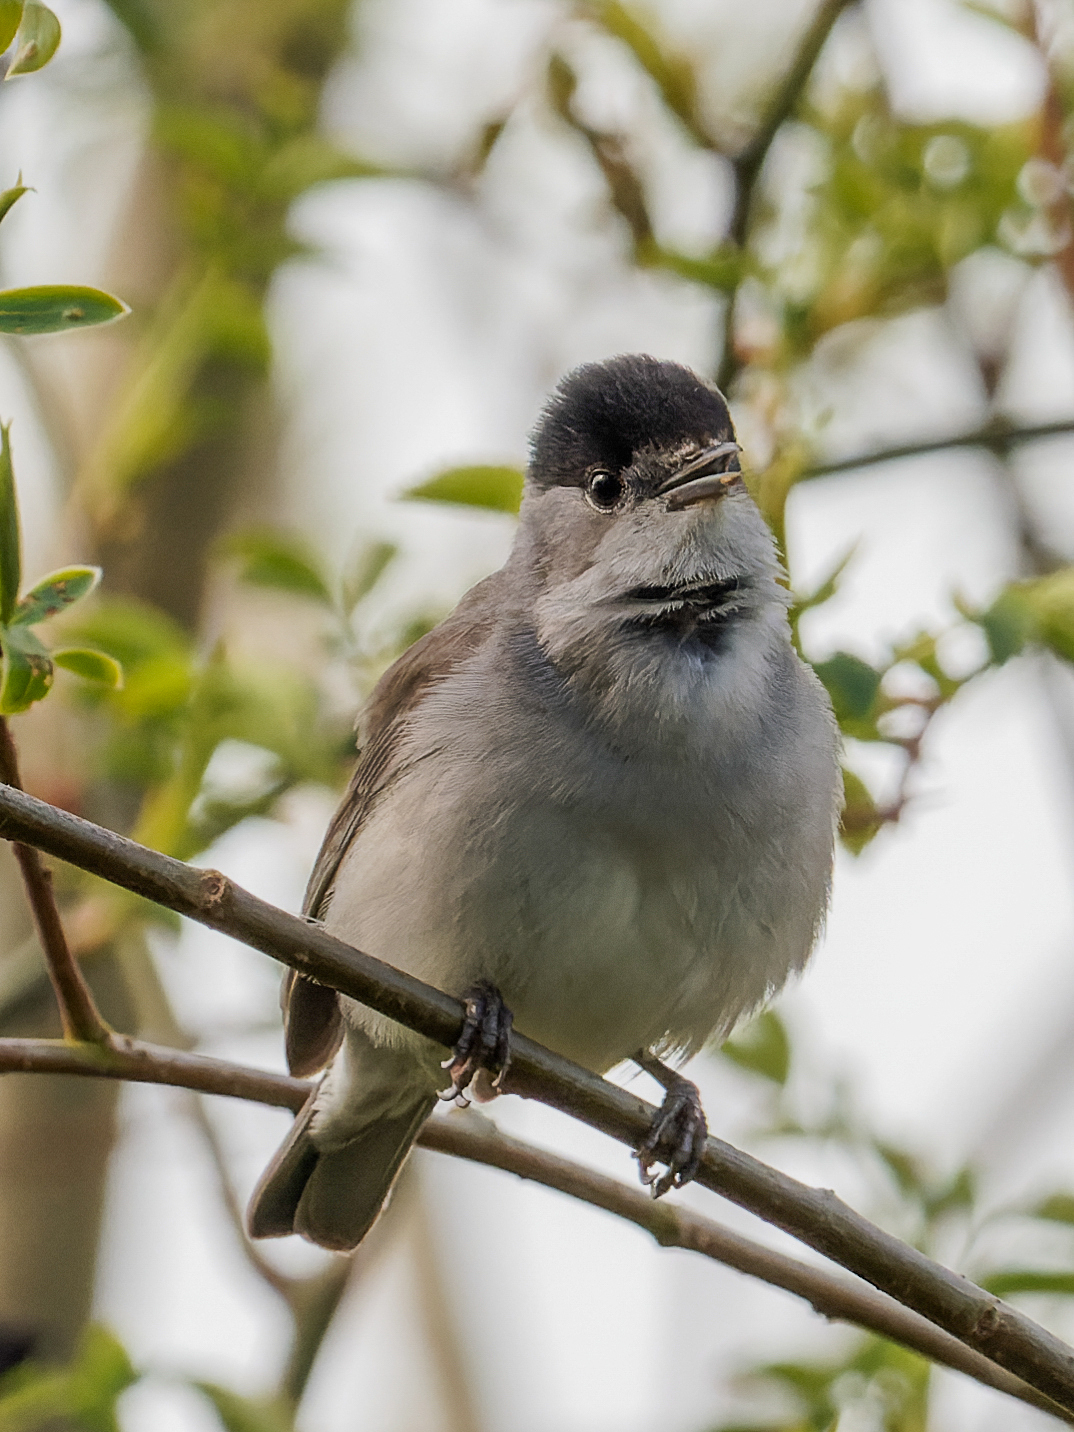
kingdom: Animalia
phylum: Chordata
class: Aves
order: Passeriformes
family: Sylviidae
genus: Sylvia
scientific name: Sylvia atricapilla
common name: Eurasian blackcap
